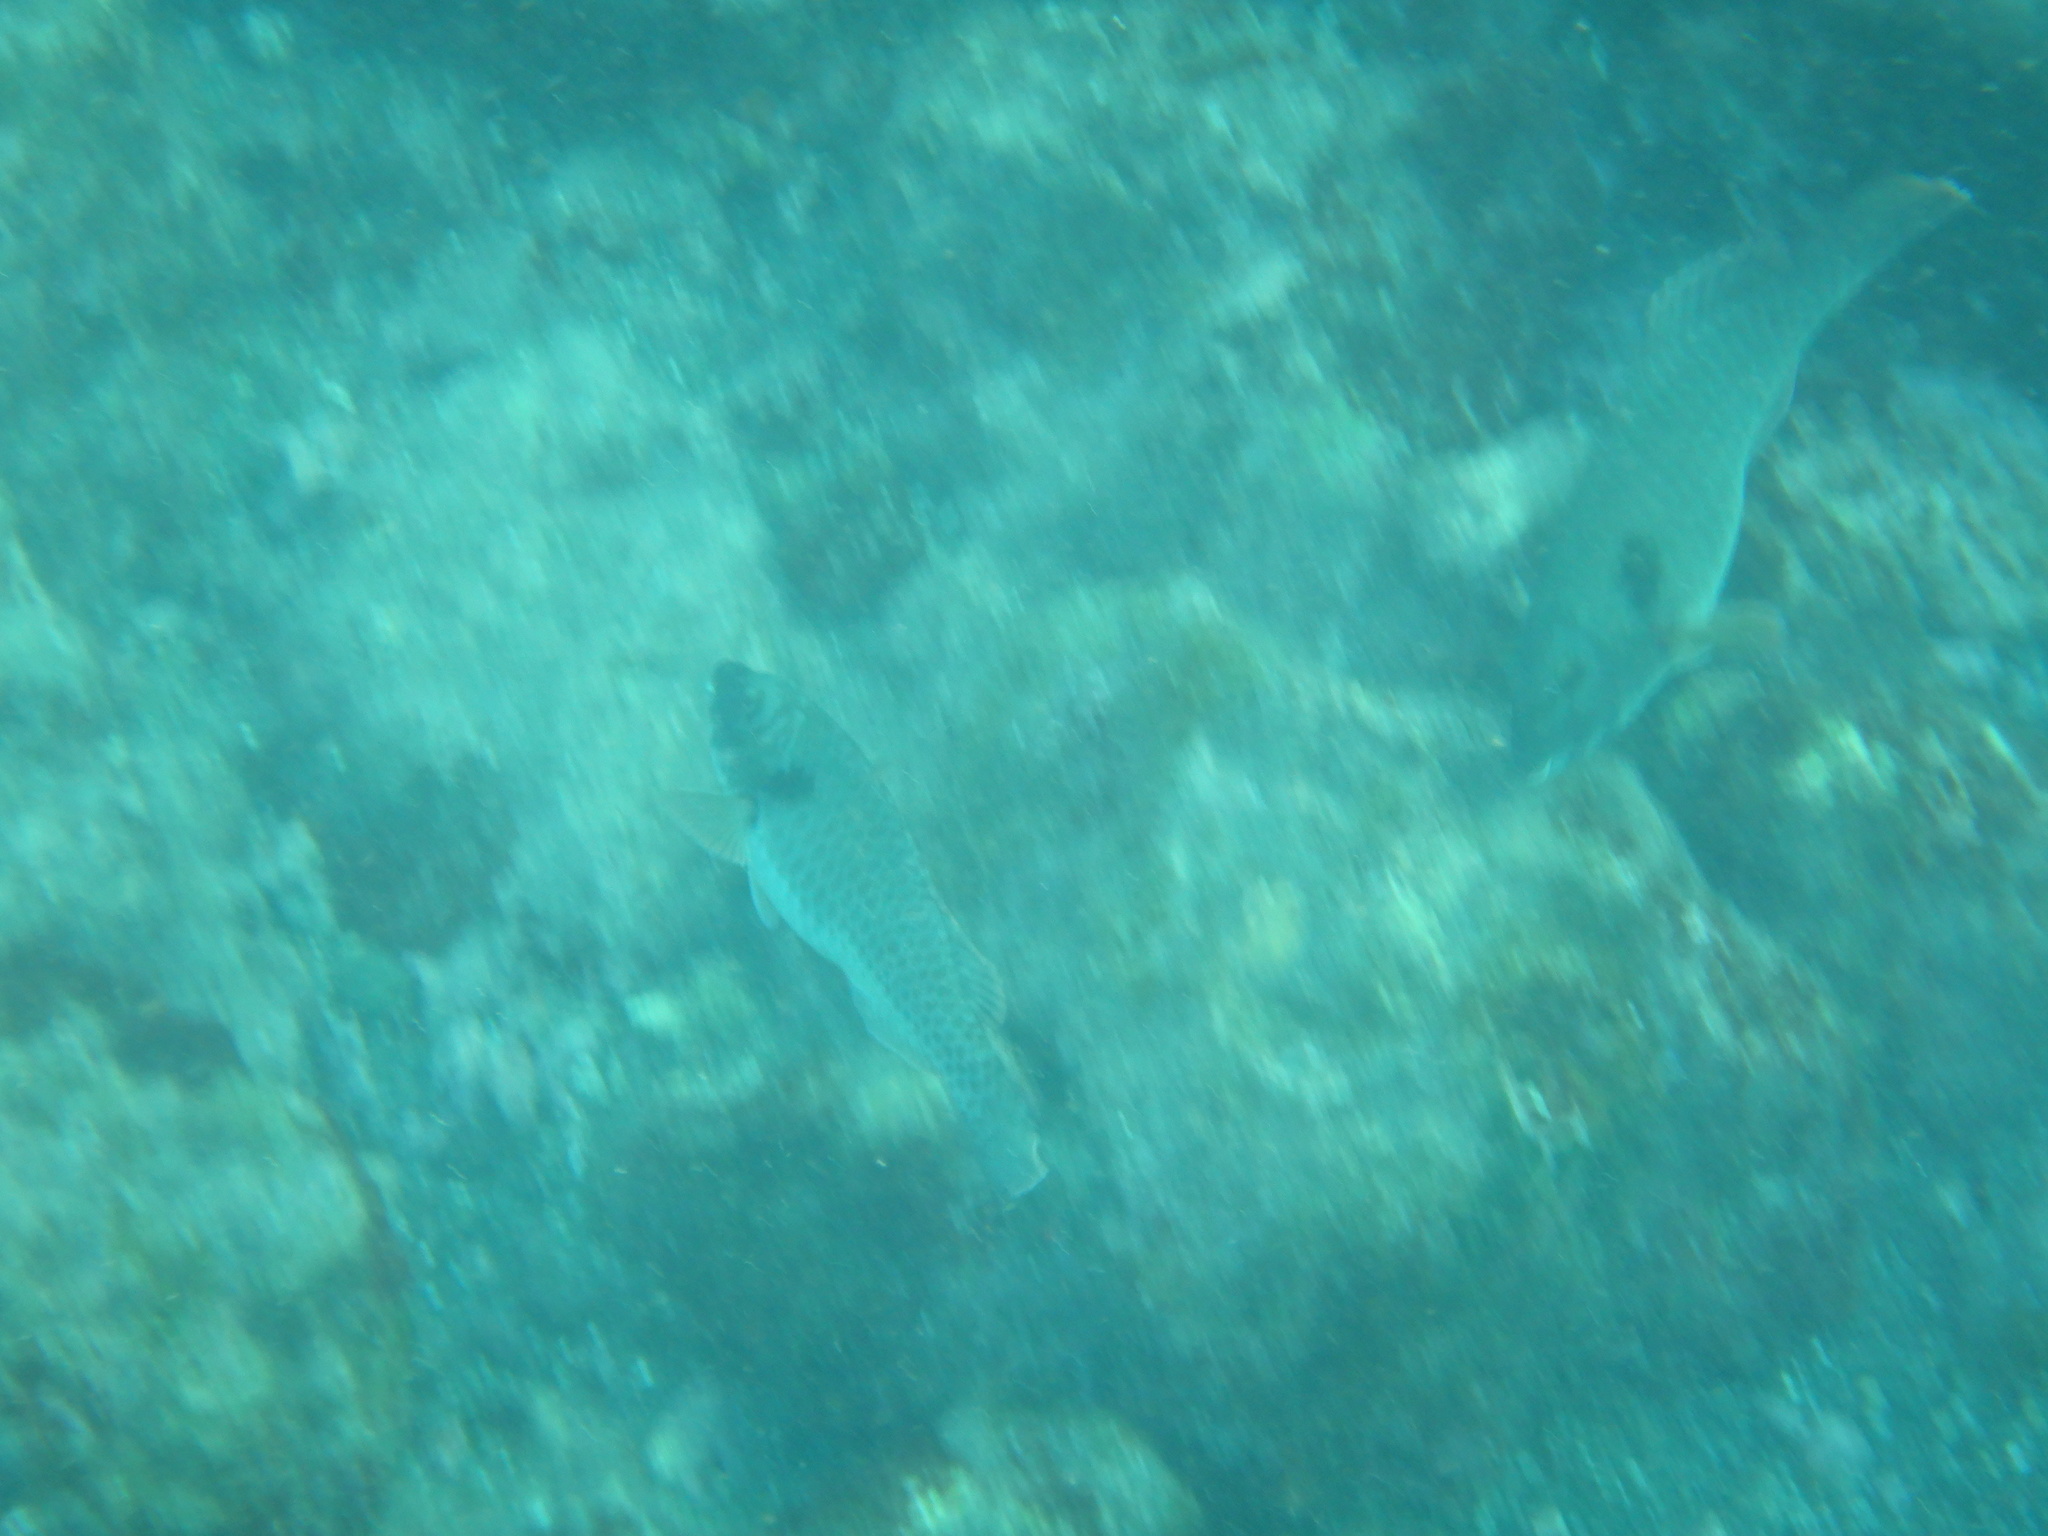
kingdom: Animalia
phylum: Chordata
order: Perciformes
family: Scaridae
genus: Sparisoma
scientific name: Sparisoma cretense
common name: Parrotfish
